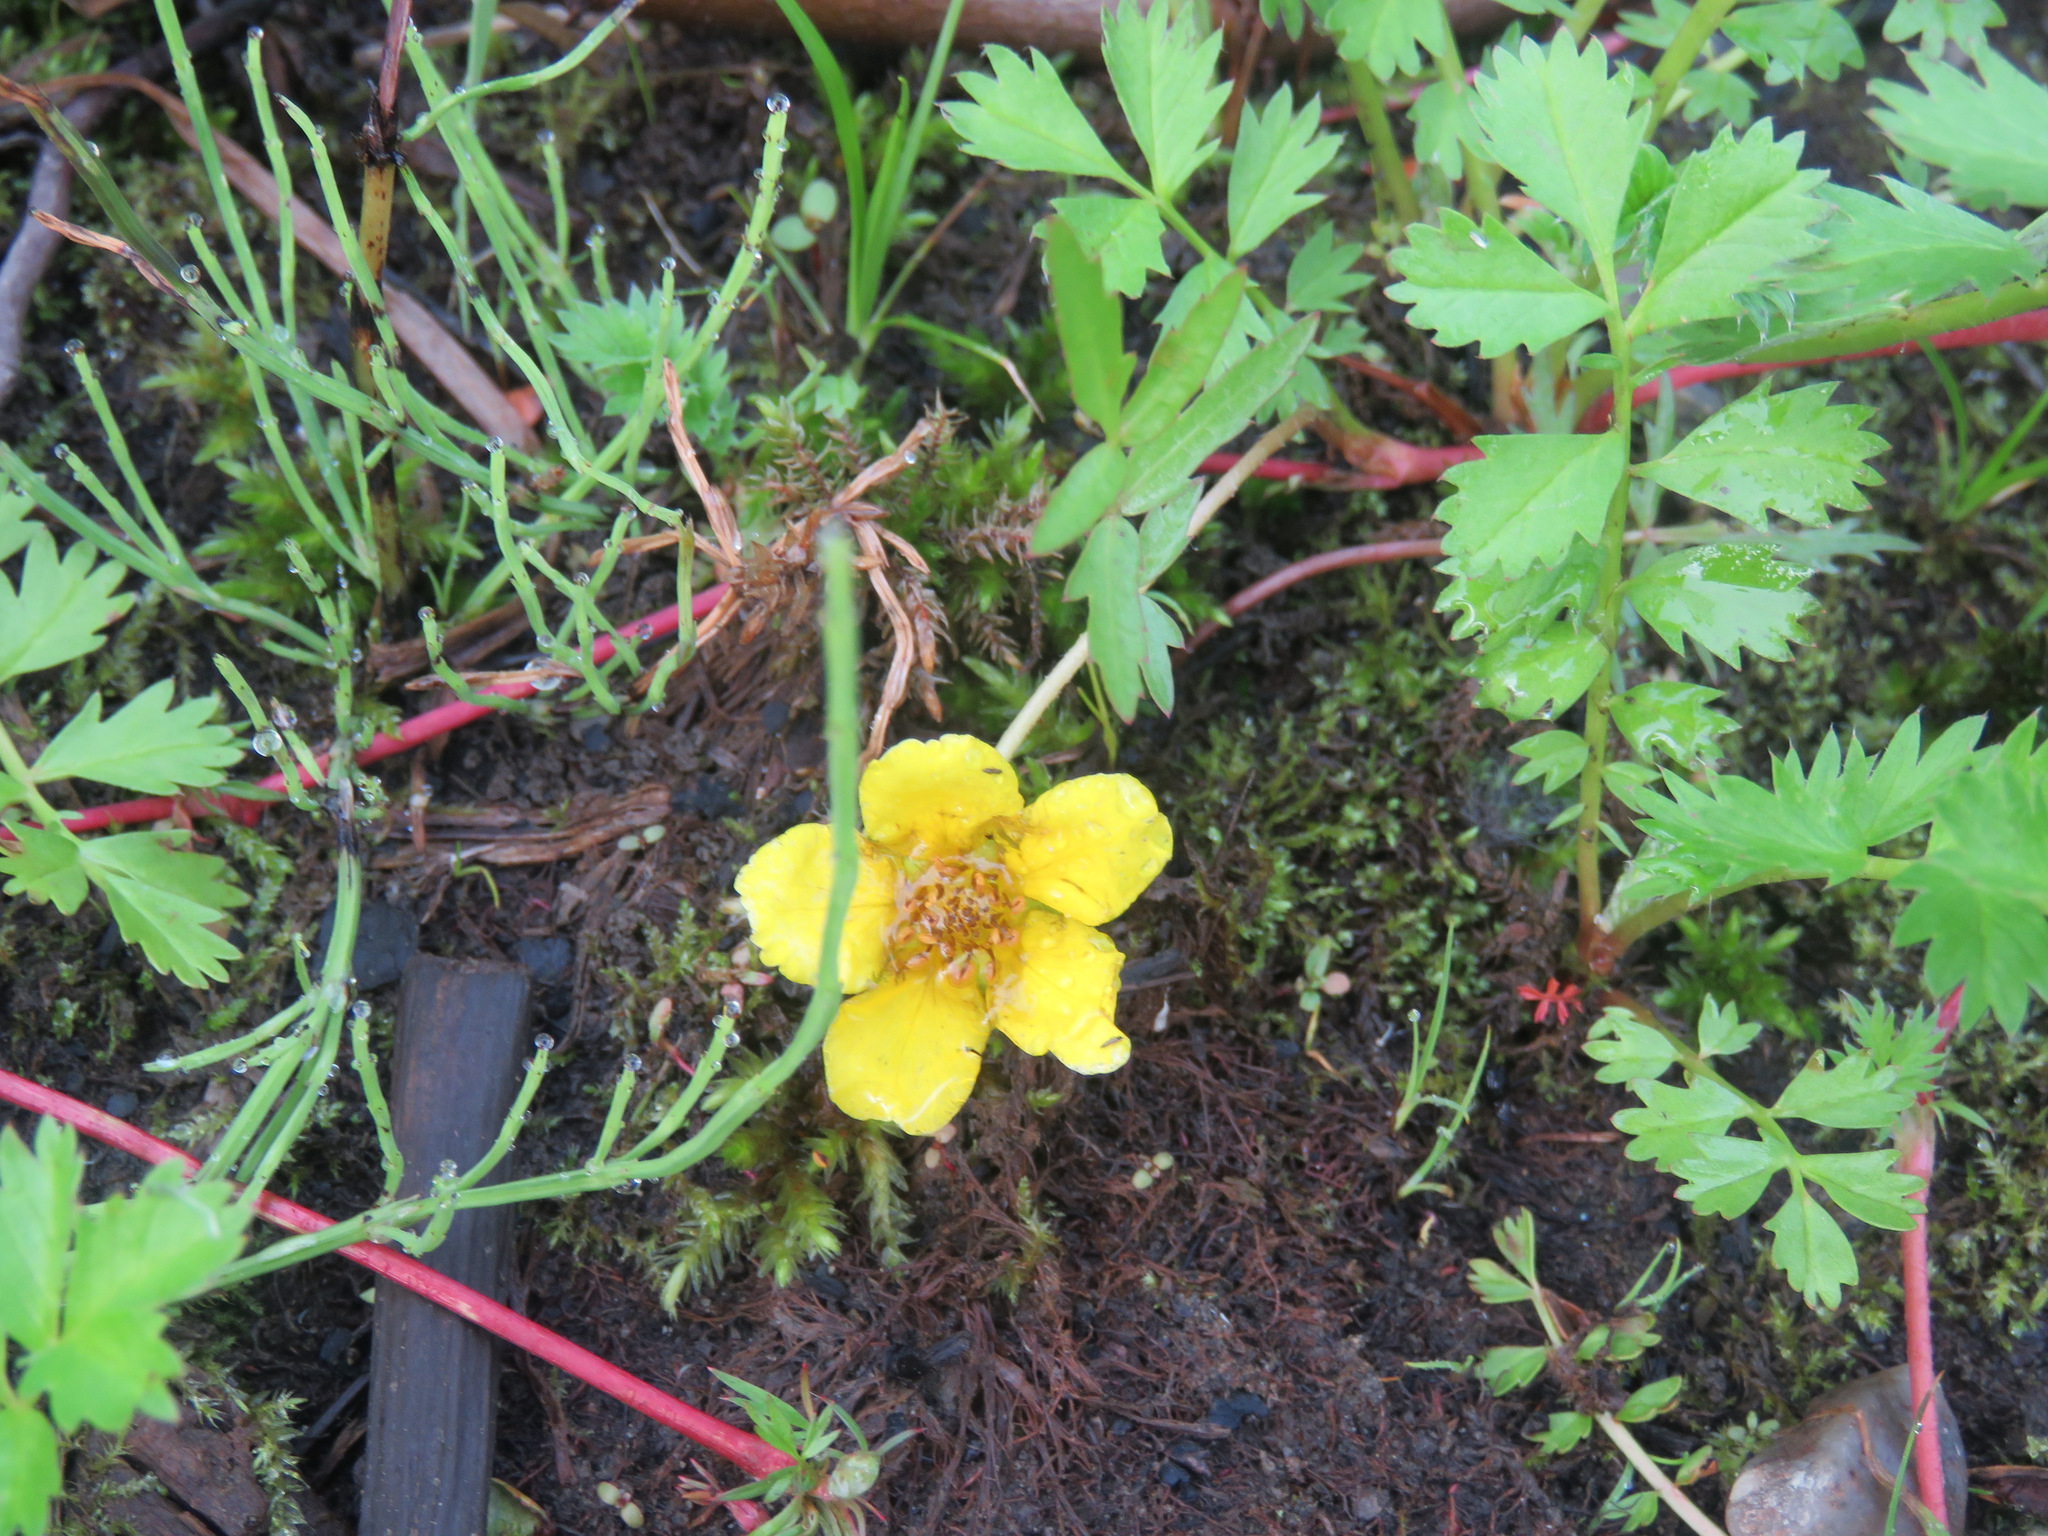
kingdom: Plantae
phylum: Tracheophyta
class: Magnoliopsida
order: Rosales
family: Rosaceae
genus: Argentina
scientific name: Argentina anserina
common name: Common silverweed
